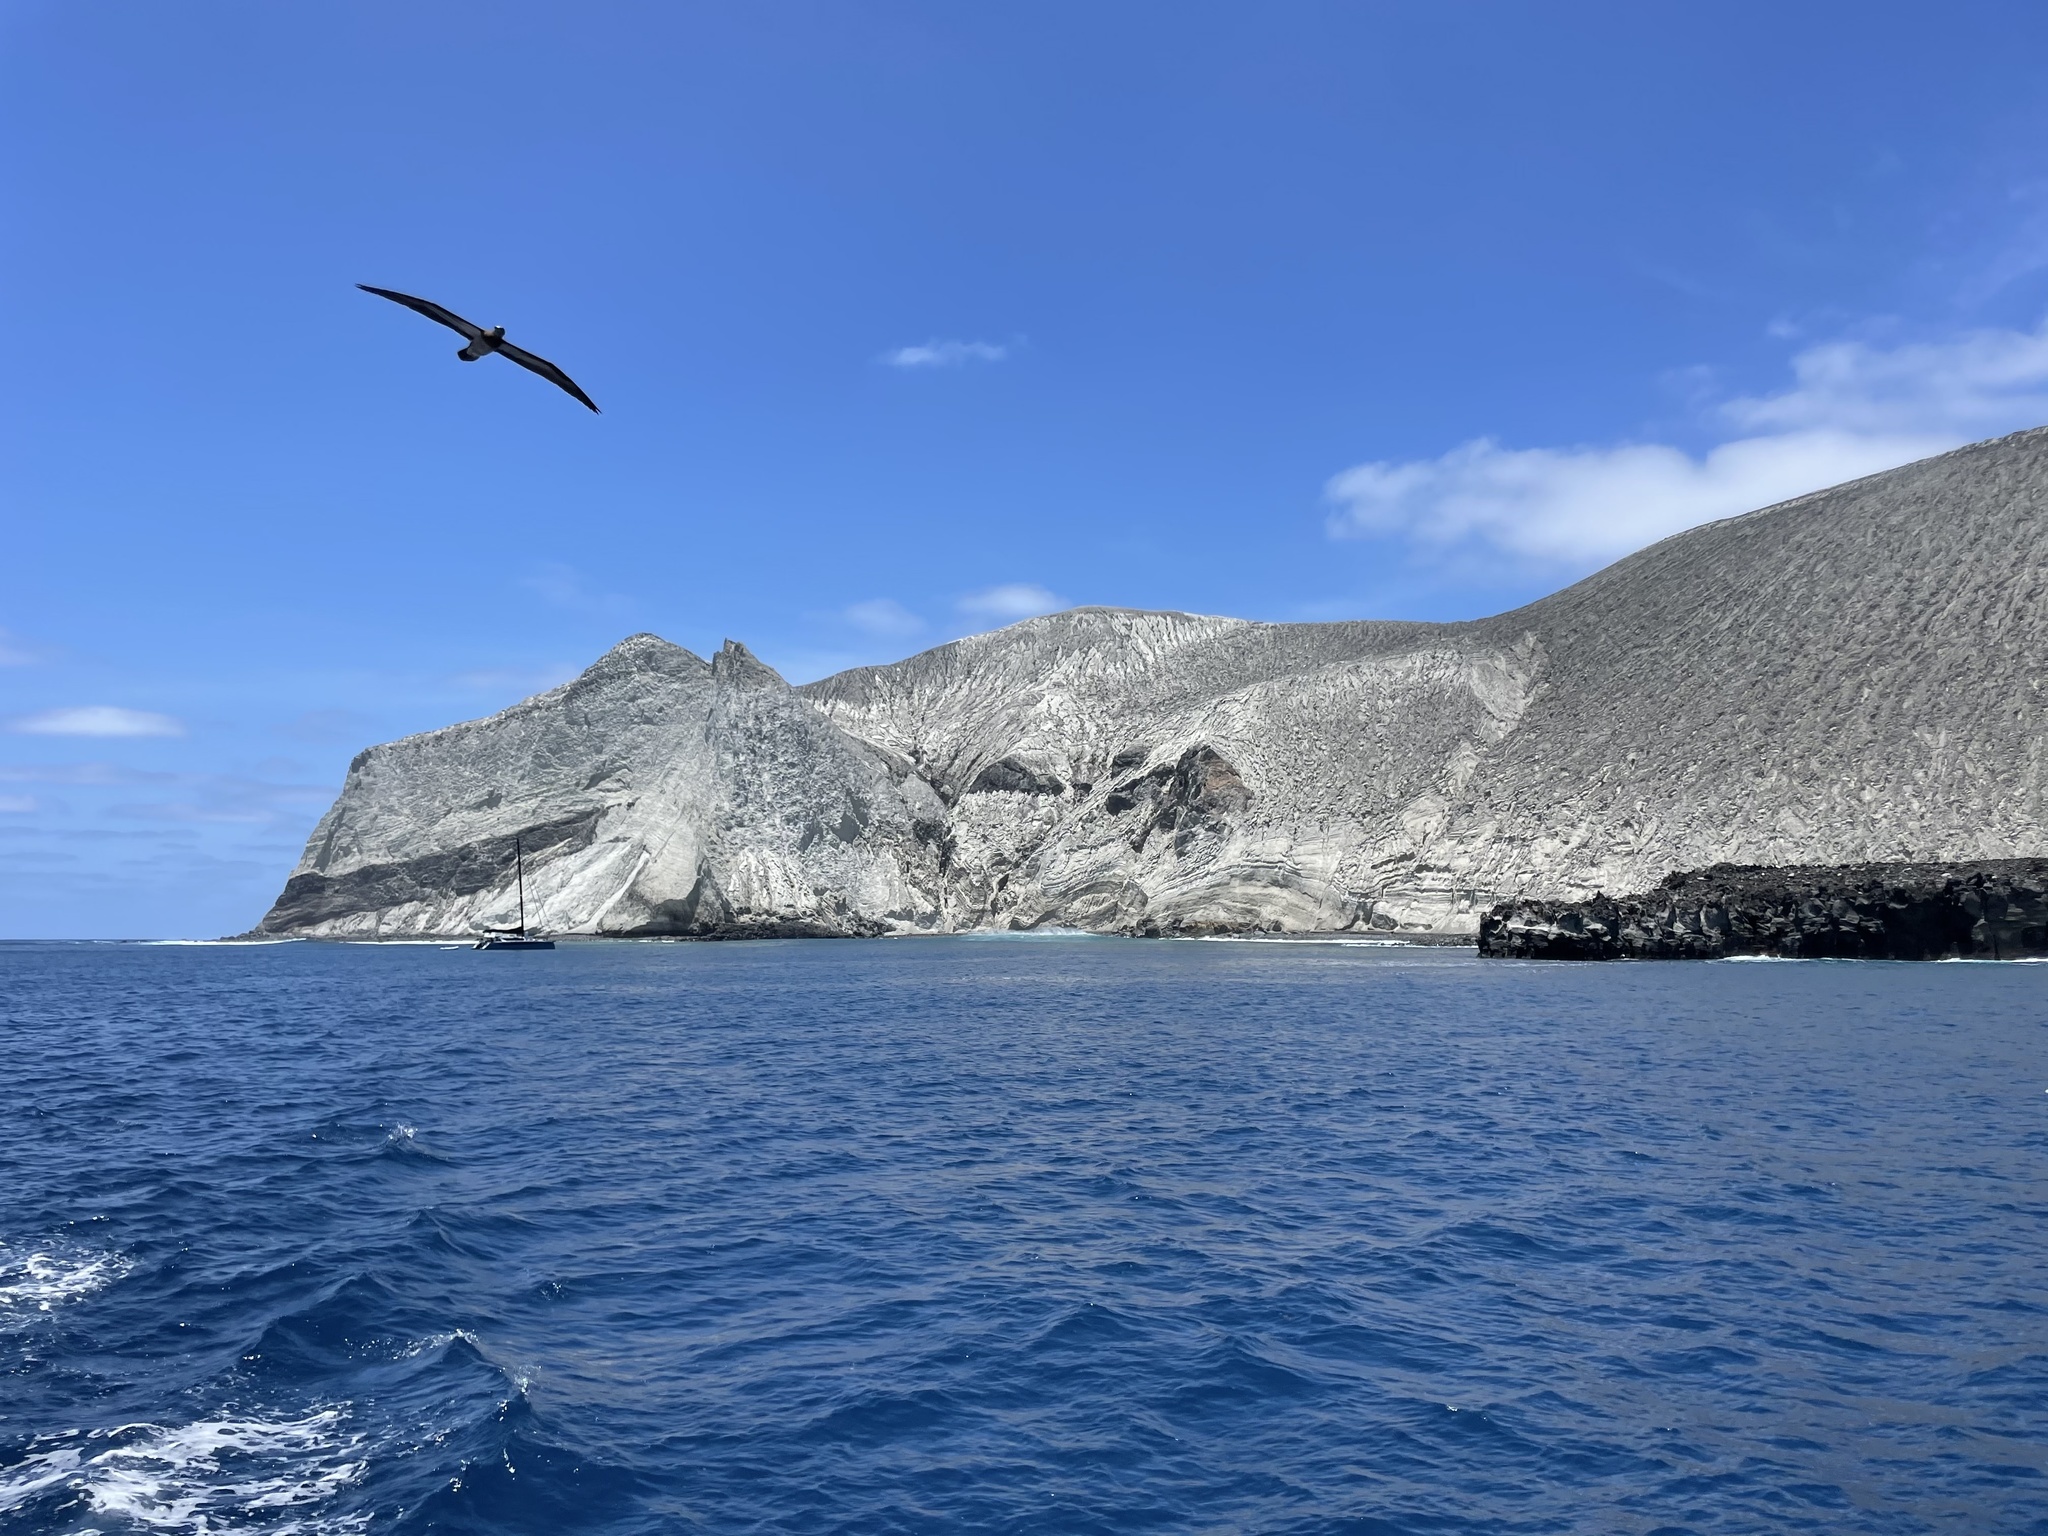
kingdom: Animalia
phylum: Chordata
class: Aves
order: Suliformes
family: Sulidae
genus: Sula
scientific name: Sula leucogaster
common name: Brown booby
